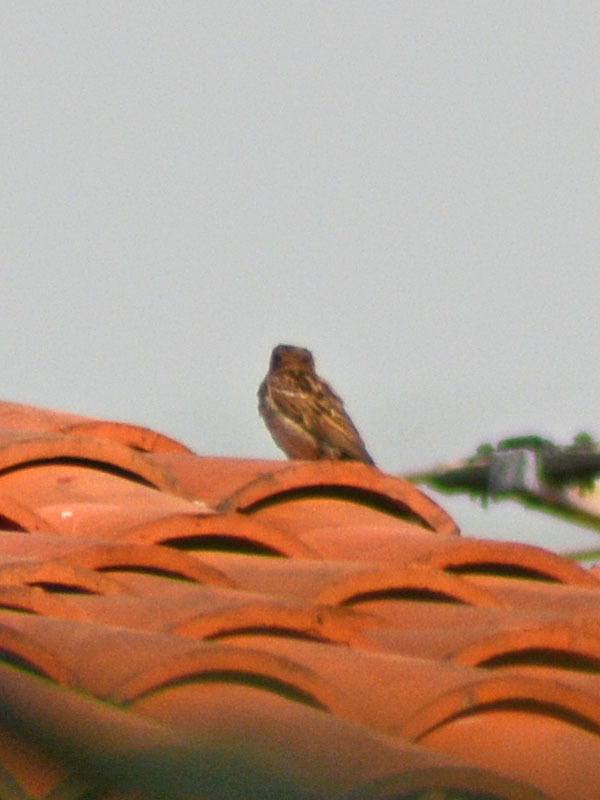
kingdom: Animalia
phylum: Chordata
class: Aves
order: Passeriformes
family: Passeridae
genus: Passer
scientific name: Passer domesticus
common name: House sparrow
